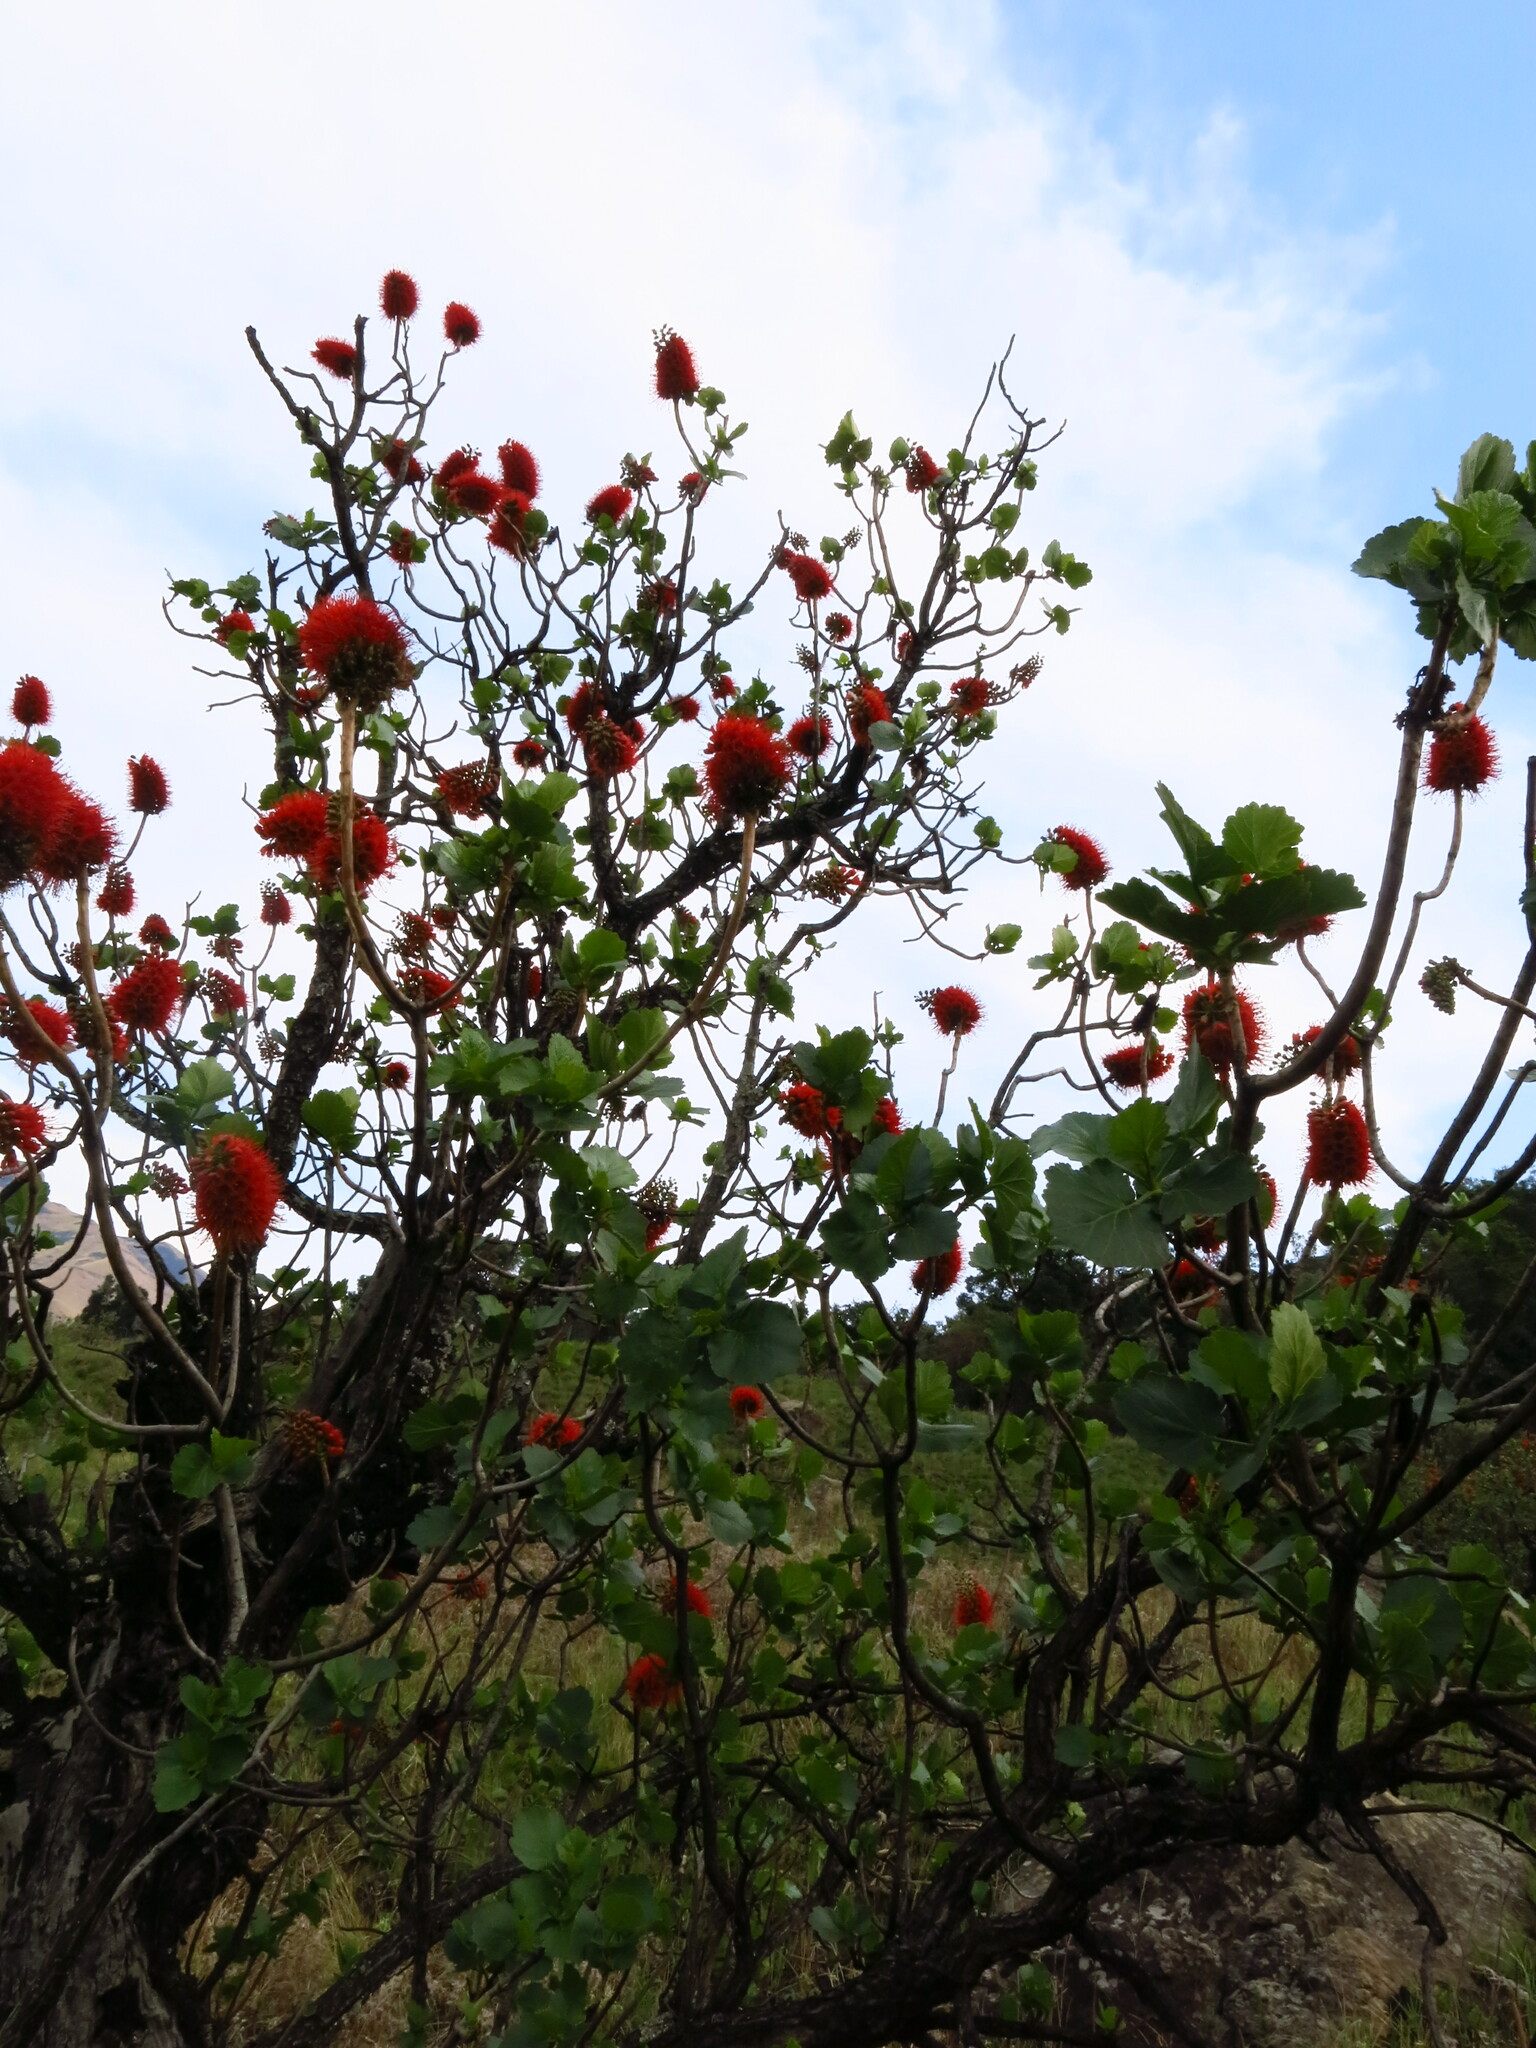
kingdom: Plantae
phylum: Tracheophyta
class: Magnoliopsida
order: Geraniales
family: Francoaceae
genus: Greyia
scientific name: Greyia sutherlandii
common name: Glossy bottlebrush
